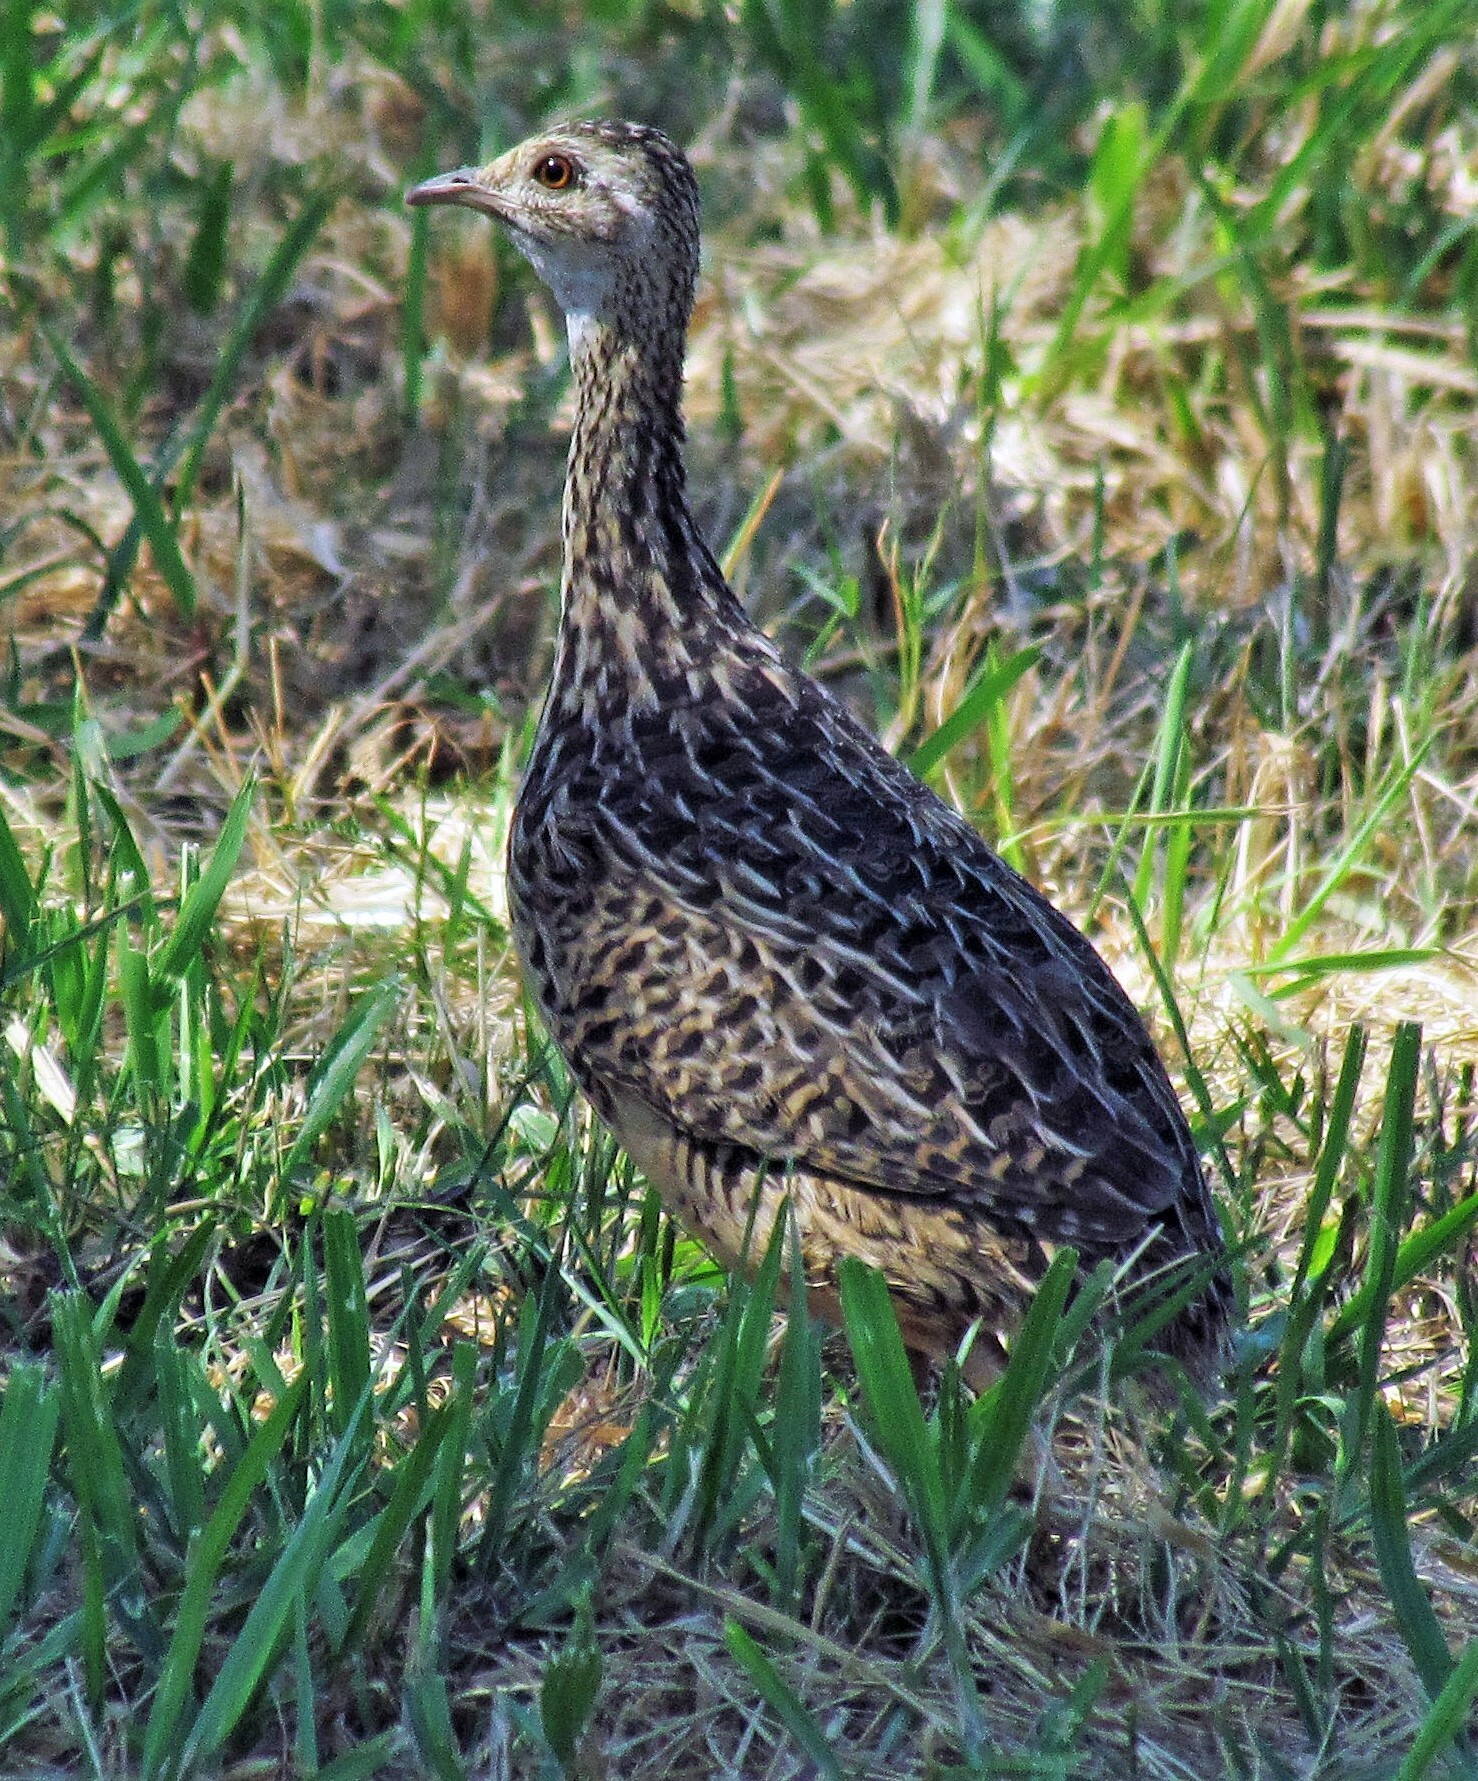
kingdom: Animalia
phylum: Chordata
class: Aves
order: Tinamiformes
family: Tinamidae
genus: Nothura
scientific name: Nothura maculosa
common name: Spotted nothura
